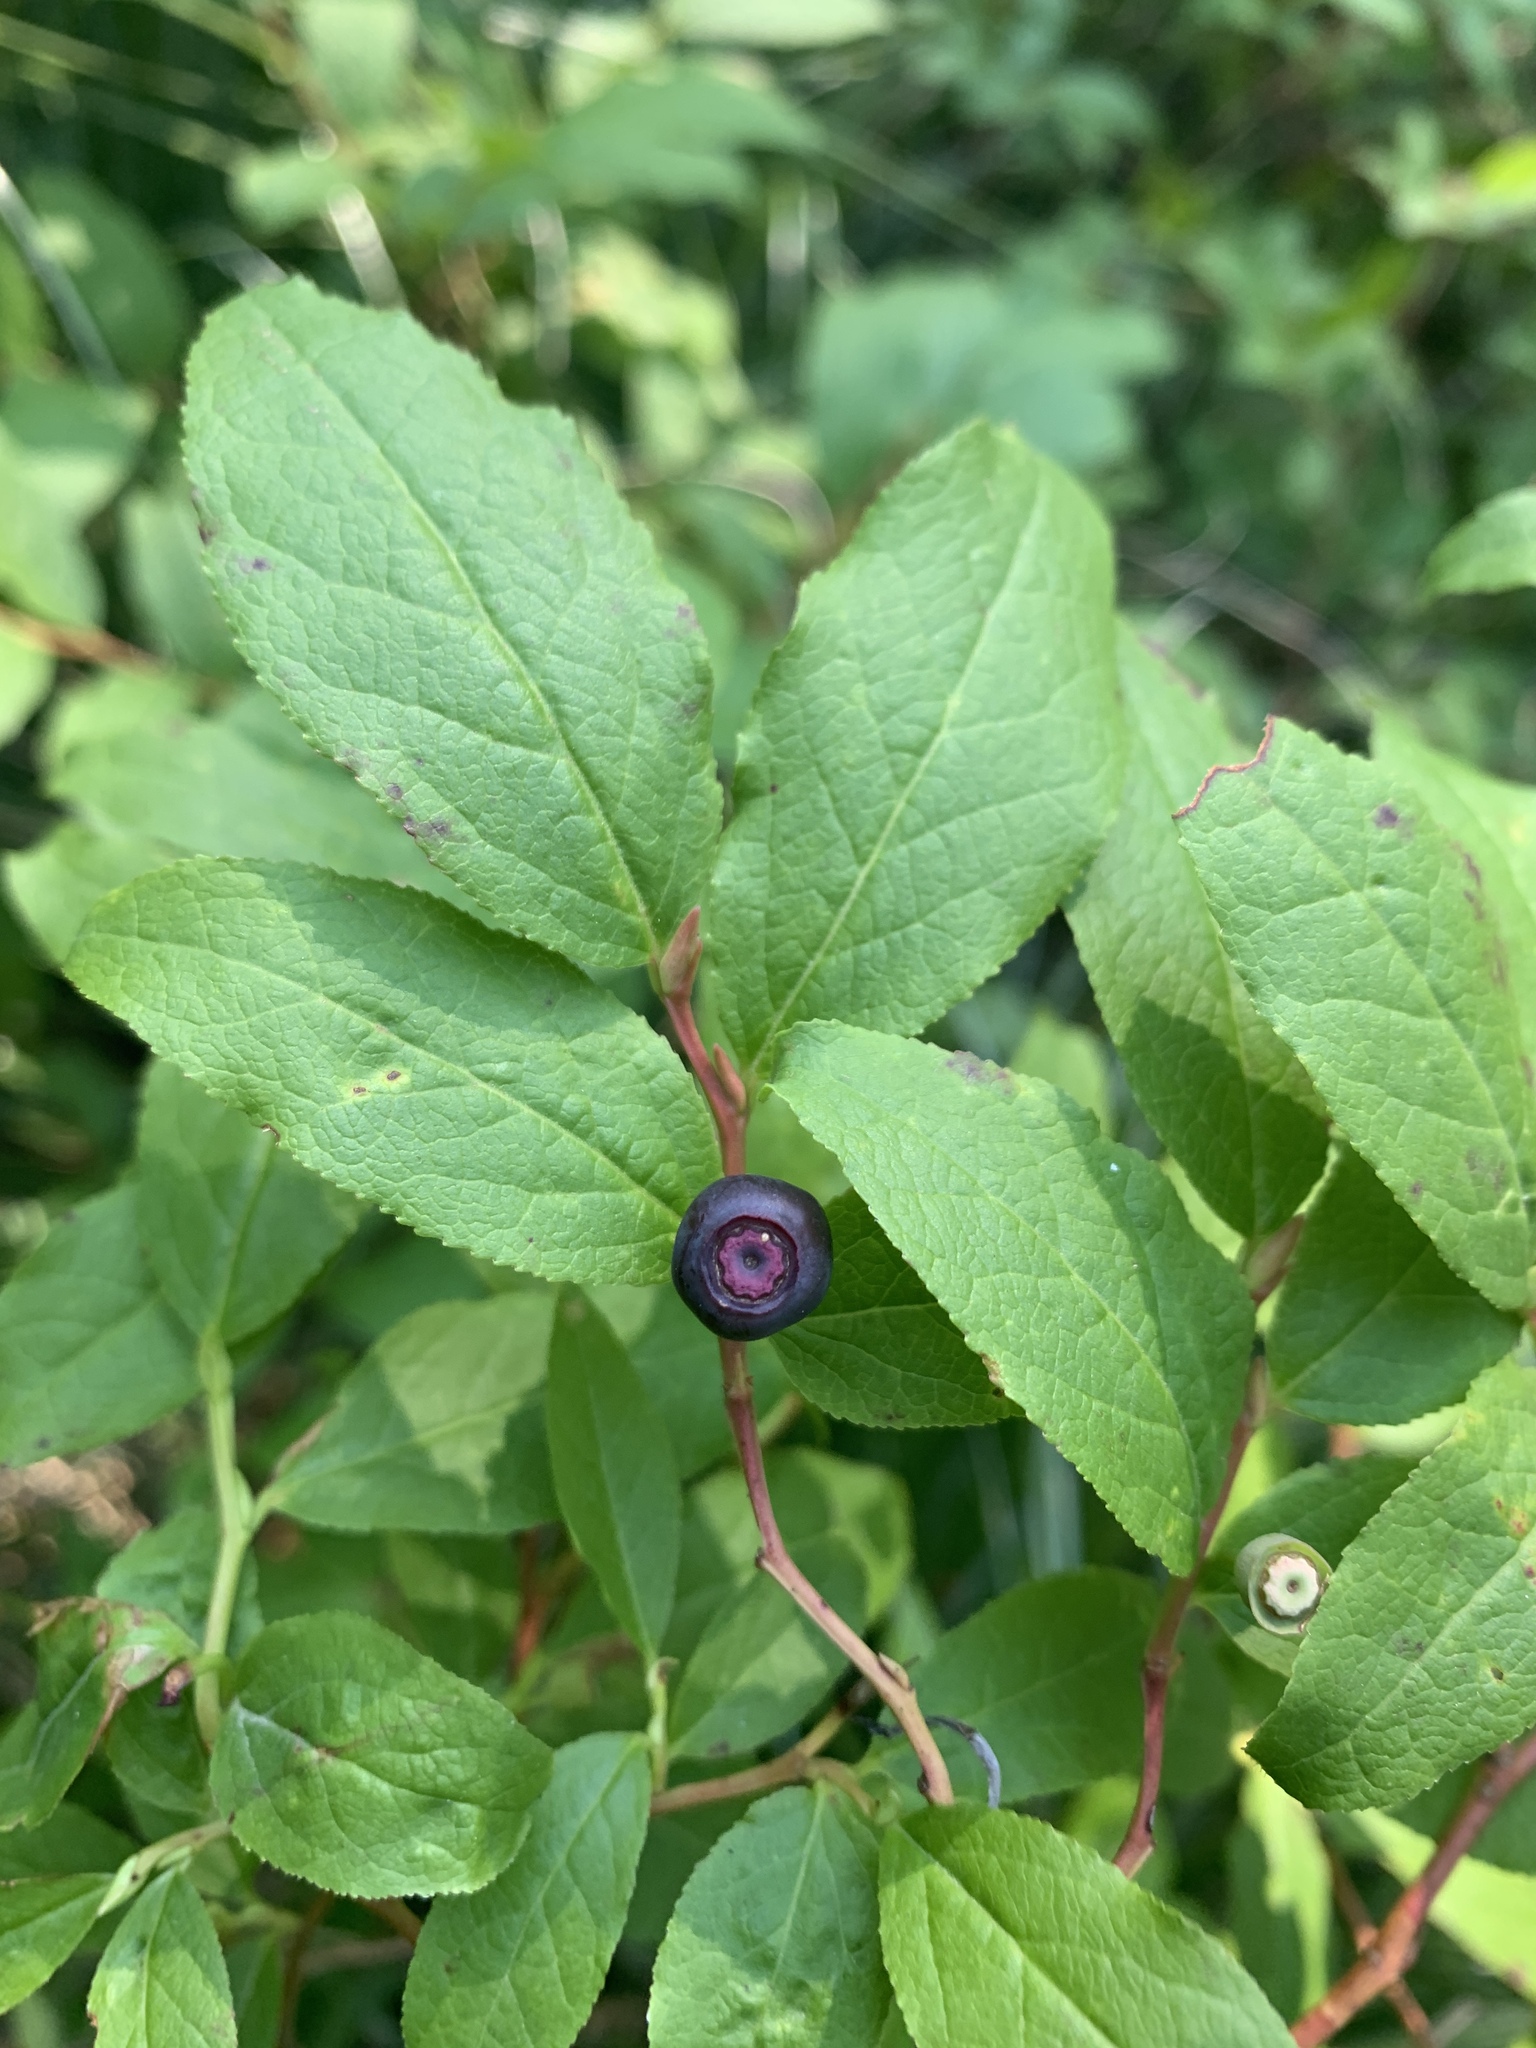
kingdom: Plantae
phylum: Tracheophyta
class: Magnoliopsida
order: Ericales
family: Ericaceae
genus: Vaccinium
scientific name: Vaccinium membranaceum
